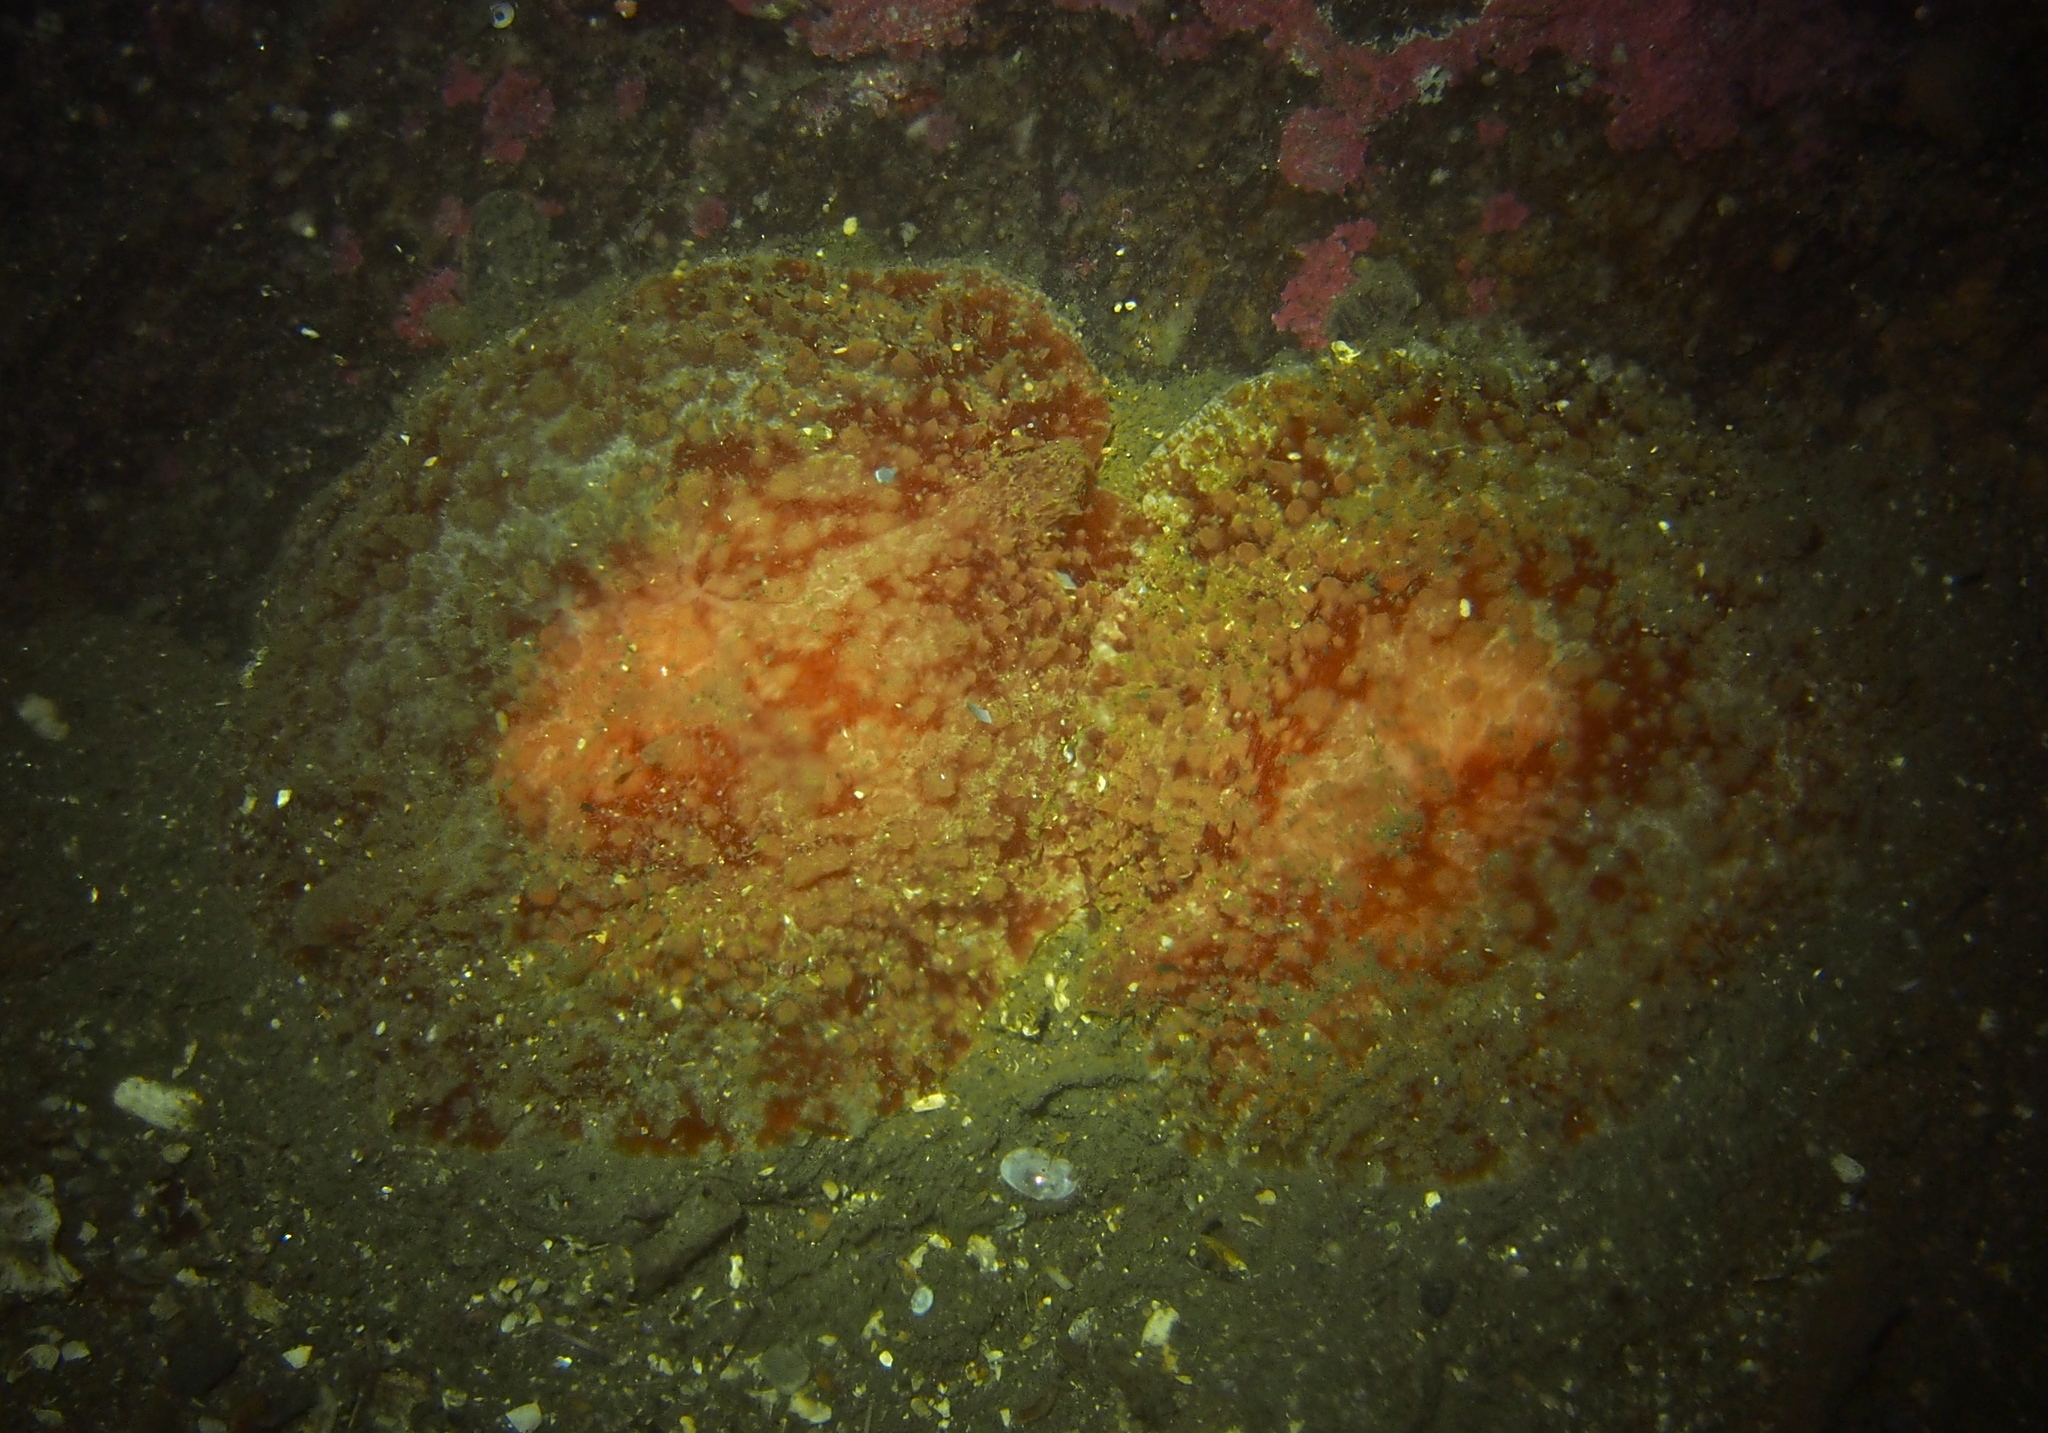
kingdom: Animalia
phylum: Mollusca
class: Gastropoda
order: Pleurobranchida
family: Pleurobranchidae
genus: Pleurobranchus
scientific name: Pleurobranchus membranaceus
